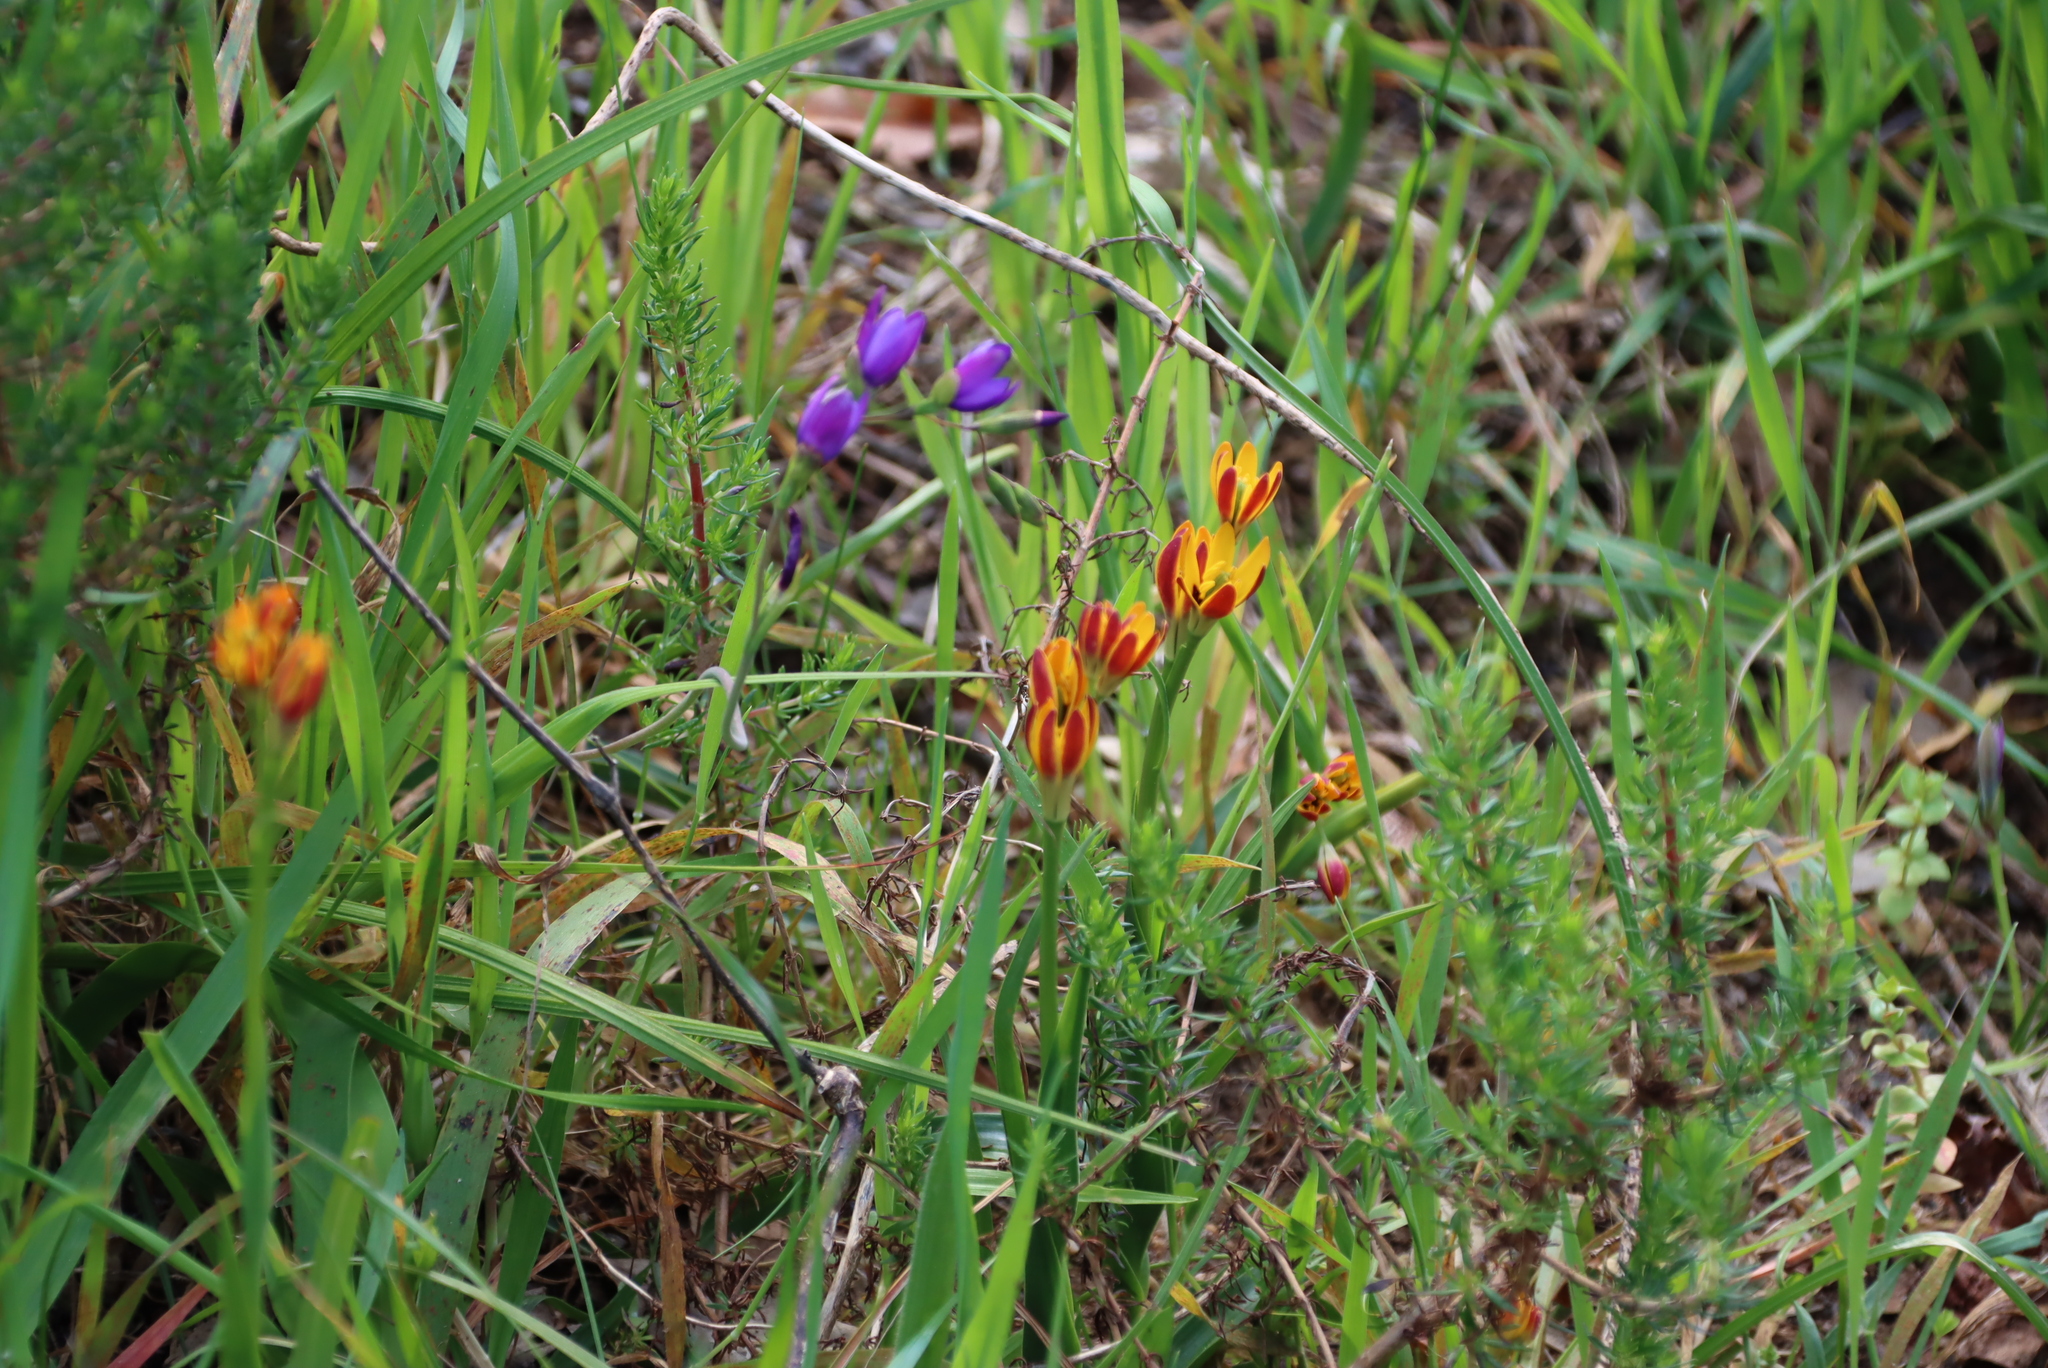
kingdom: Plantae
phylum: Tracheophyta
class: Liliopsida
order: Liliales
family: Colchicaceae
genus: Baeometra
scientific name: Baeometra uniflora
